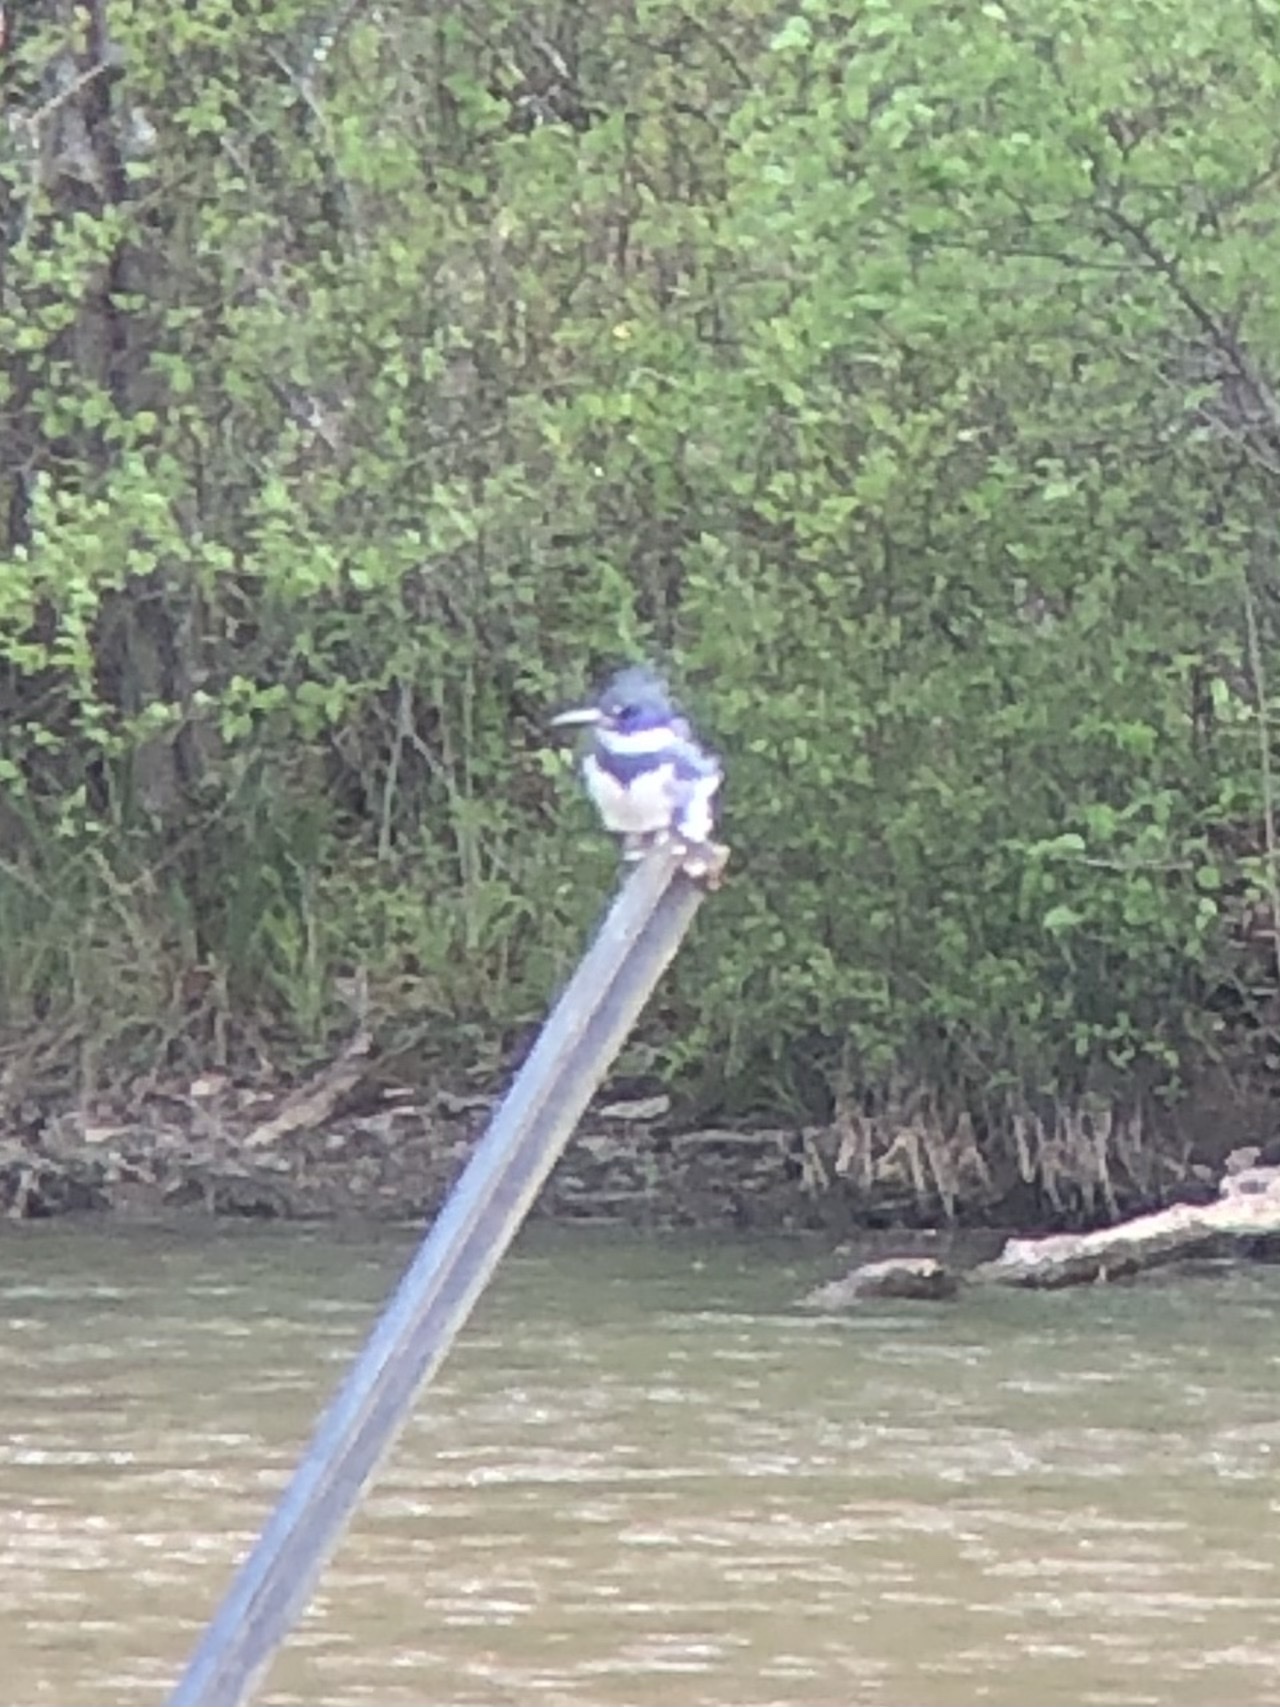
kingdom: Animalia
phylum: Chordata
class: Aves
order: Coraciiformes
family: Alcedinidae
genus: Megaceryle
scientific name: Megaceryle alcyon
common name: Belted kingfisher
